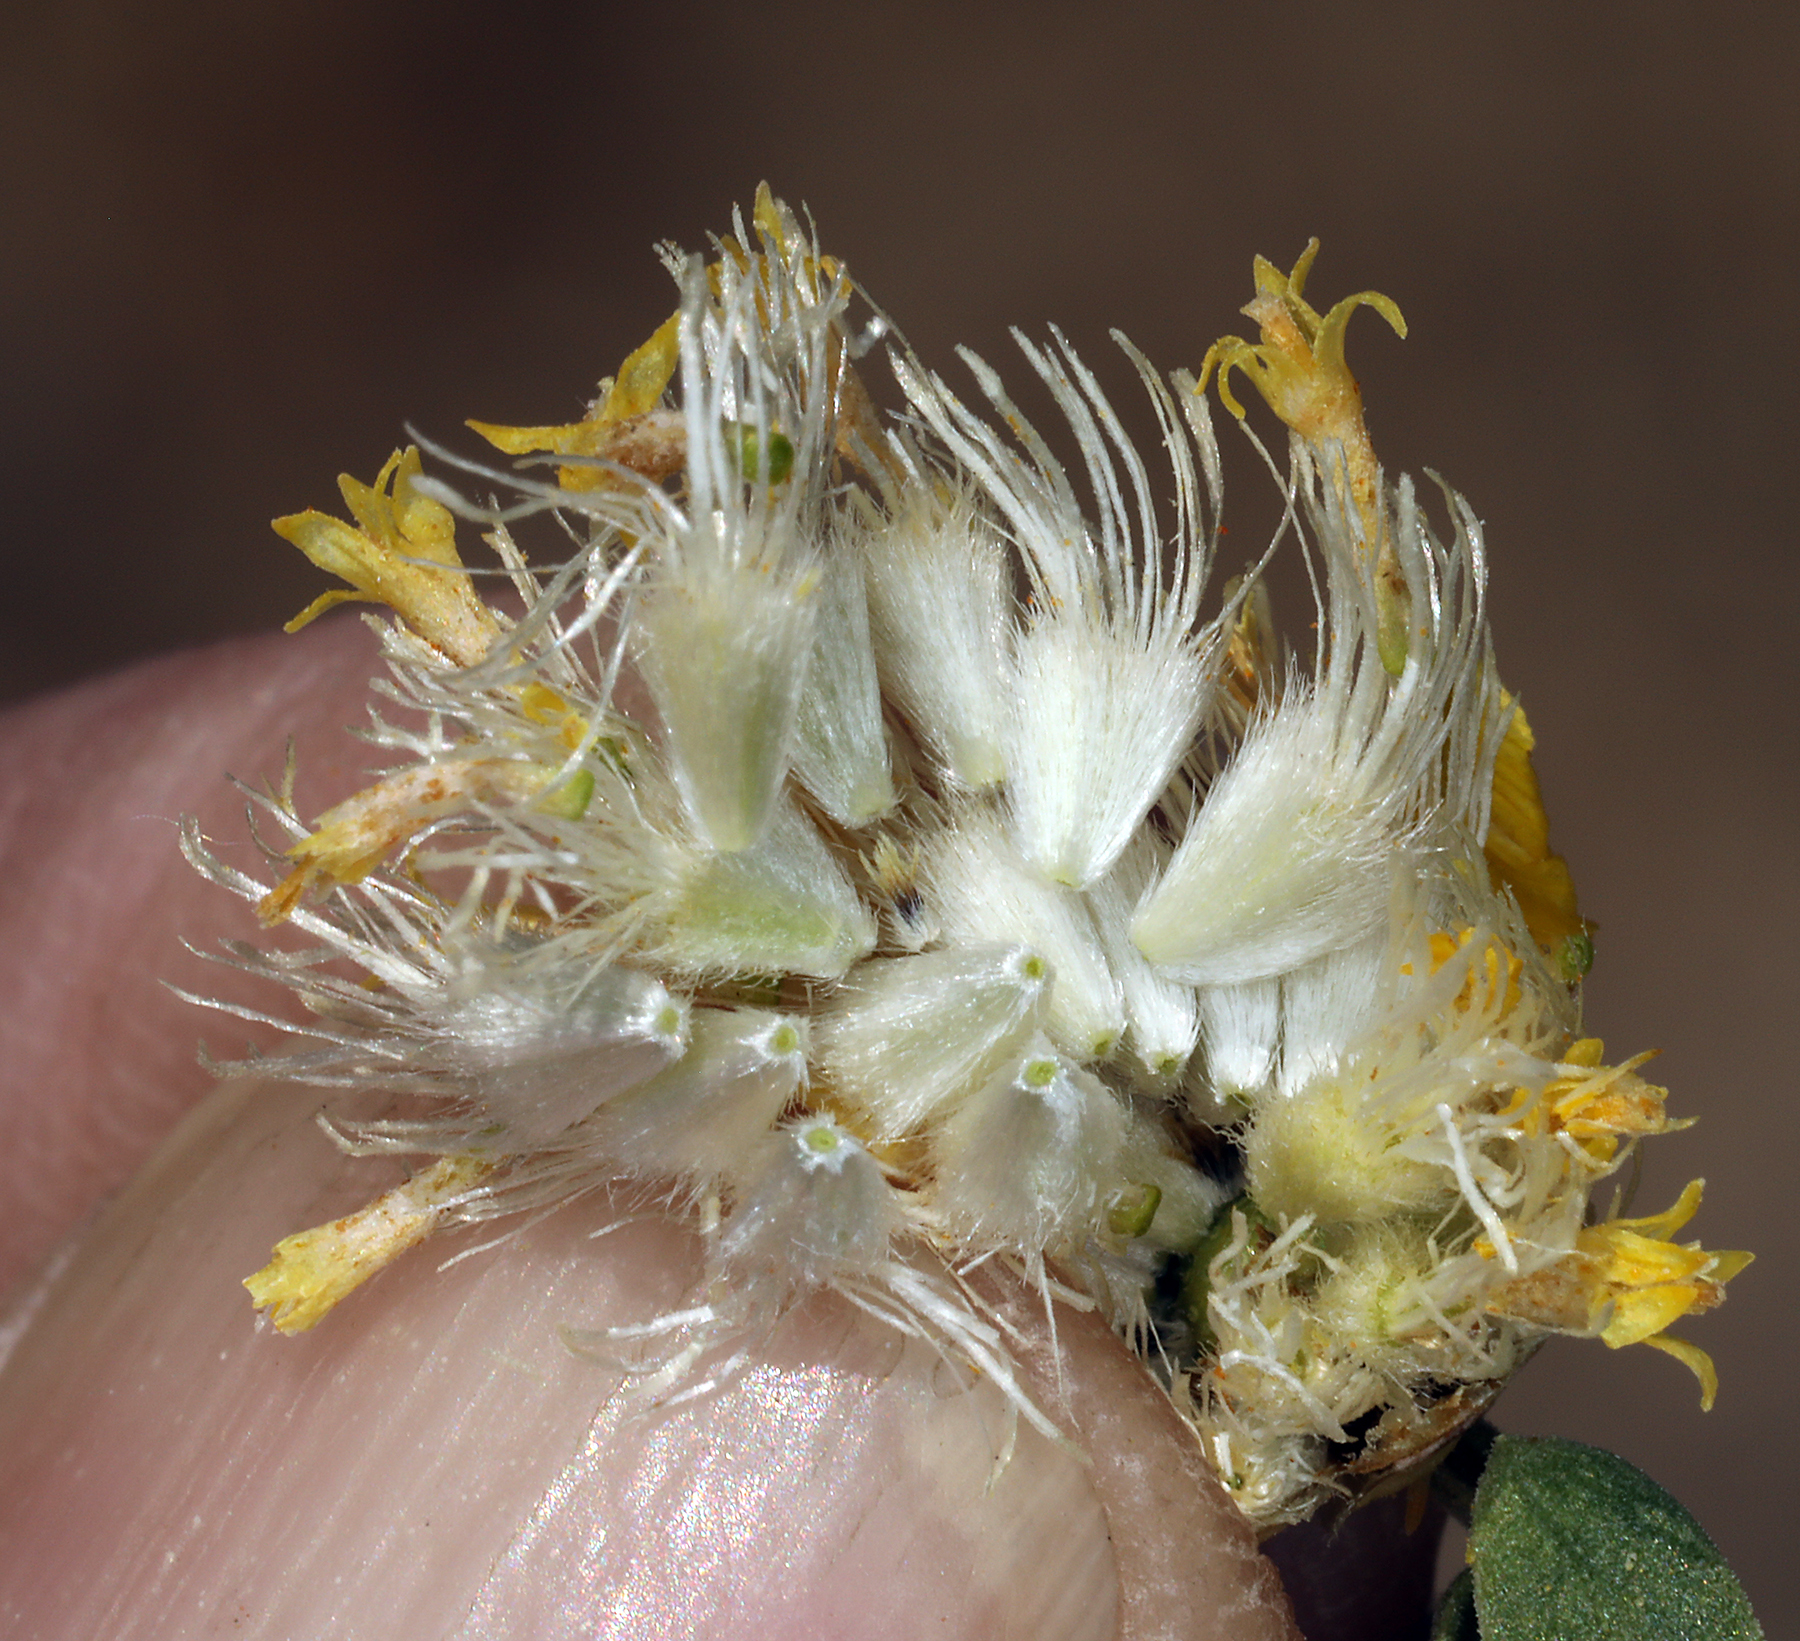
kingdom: Plantae
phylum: Tracheophyta
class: Magnoliopsida
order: Asterales
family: Asteraceae
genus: Acamptopappus
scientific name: Acamptopappus shockleyi
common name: Shockley's goldenhead
